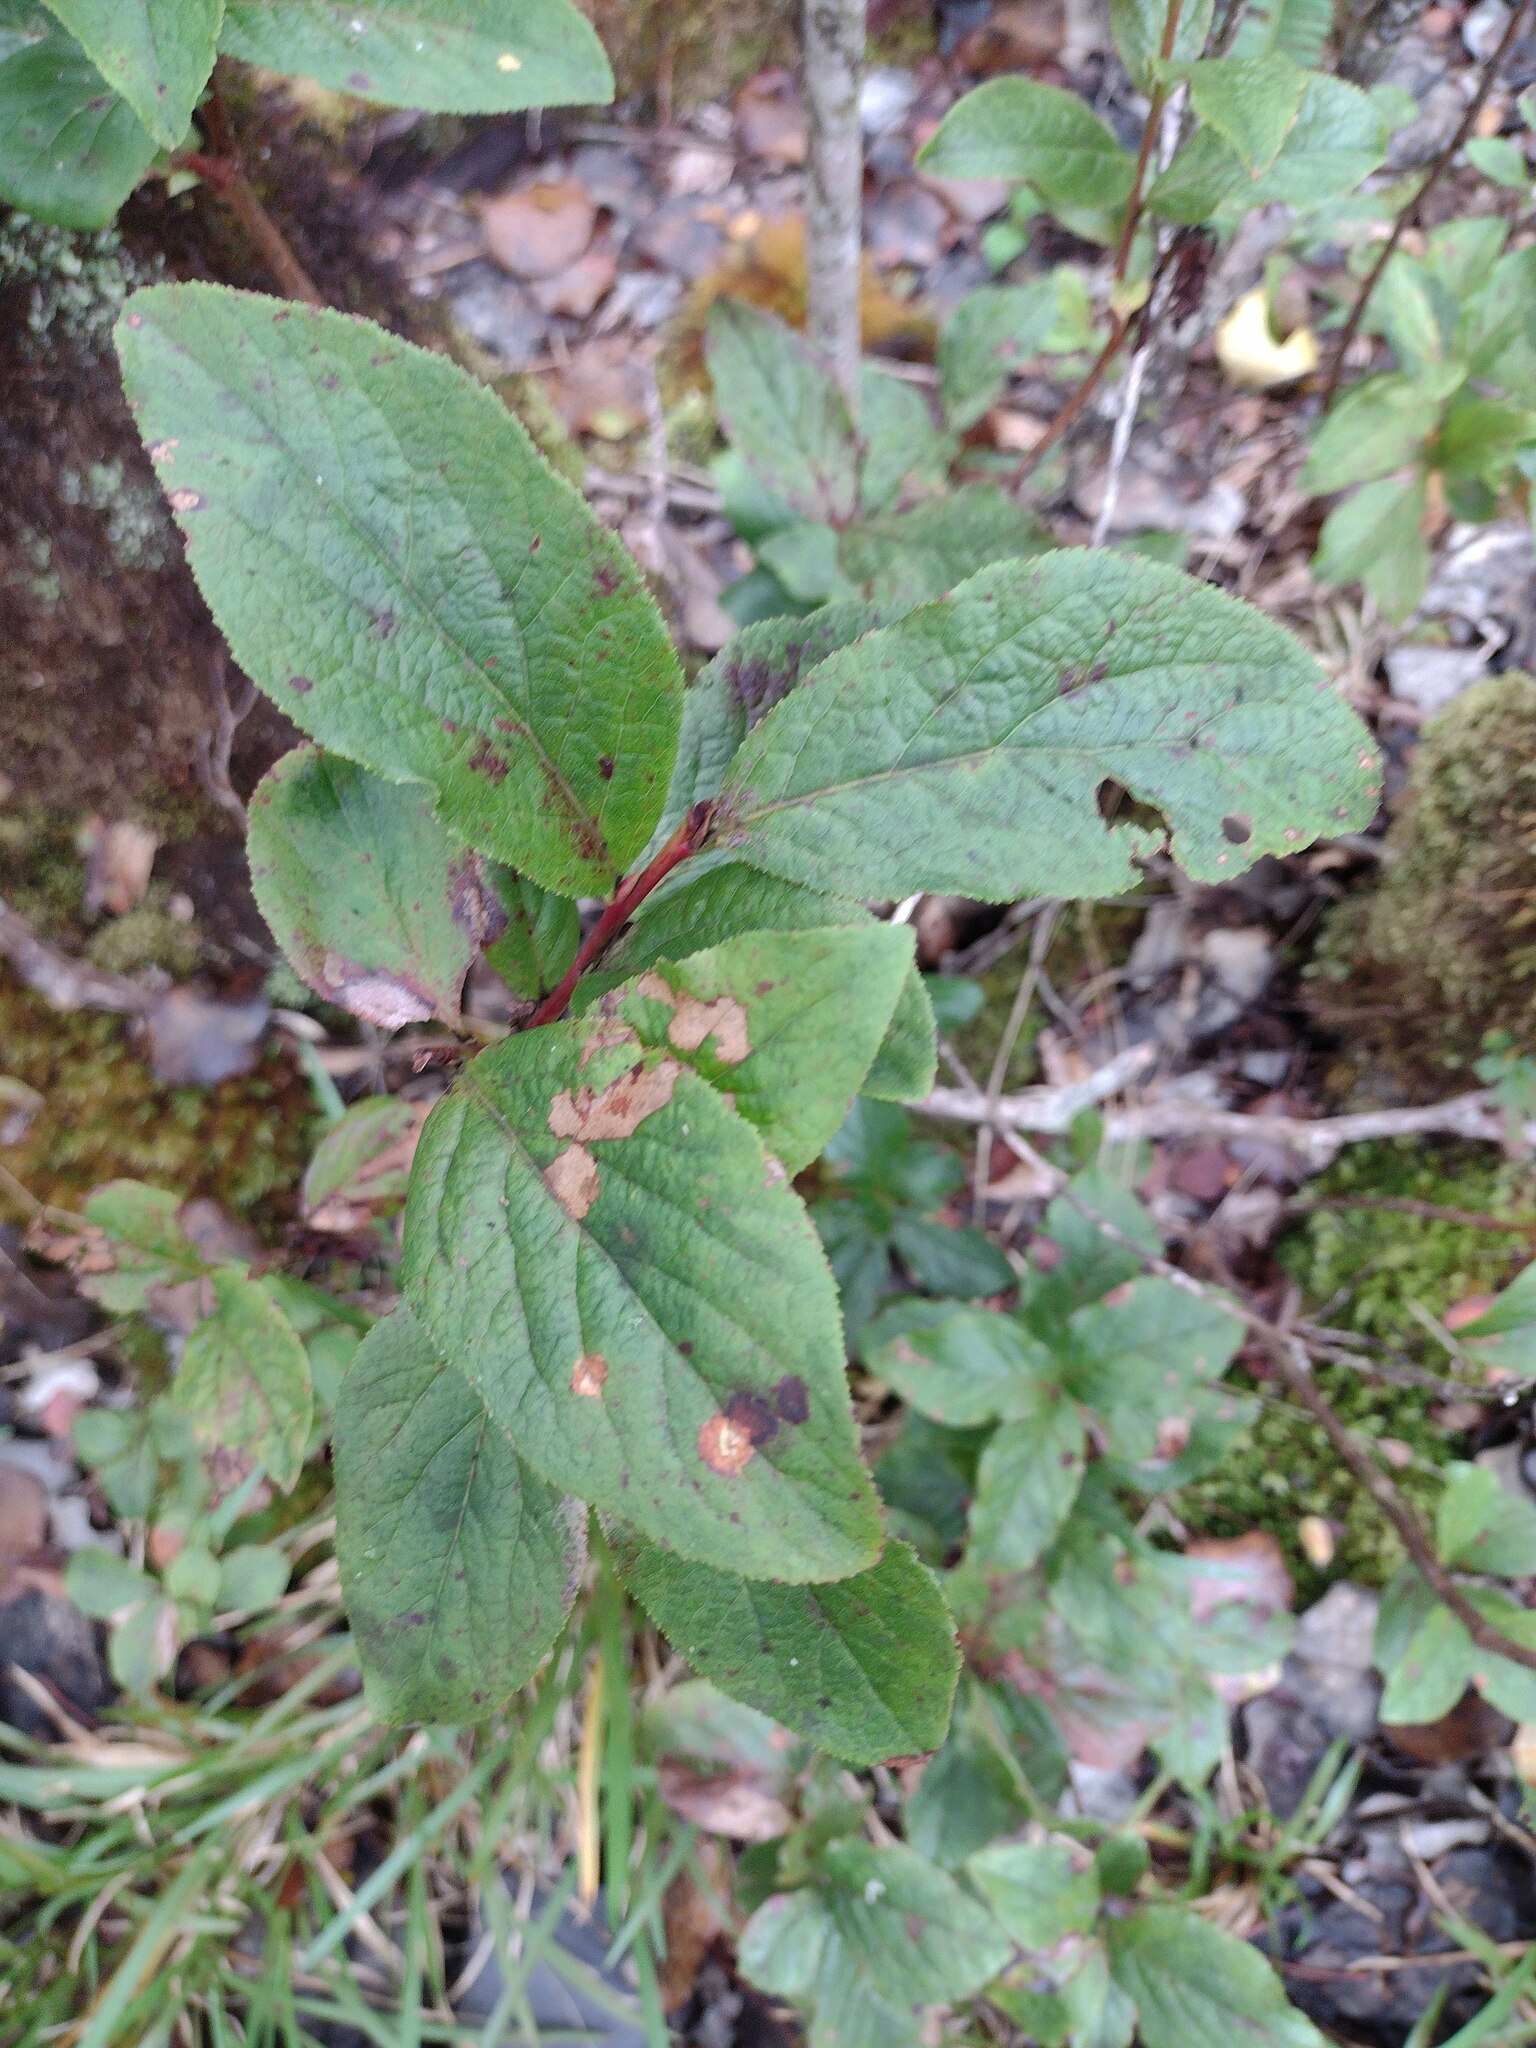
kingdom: Plantae
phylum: Tracheophyta
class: Magnoliopsida
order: Ericales
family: Ericaceae
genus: Vaccinium
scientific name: Vaccinium calycinum
